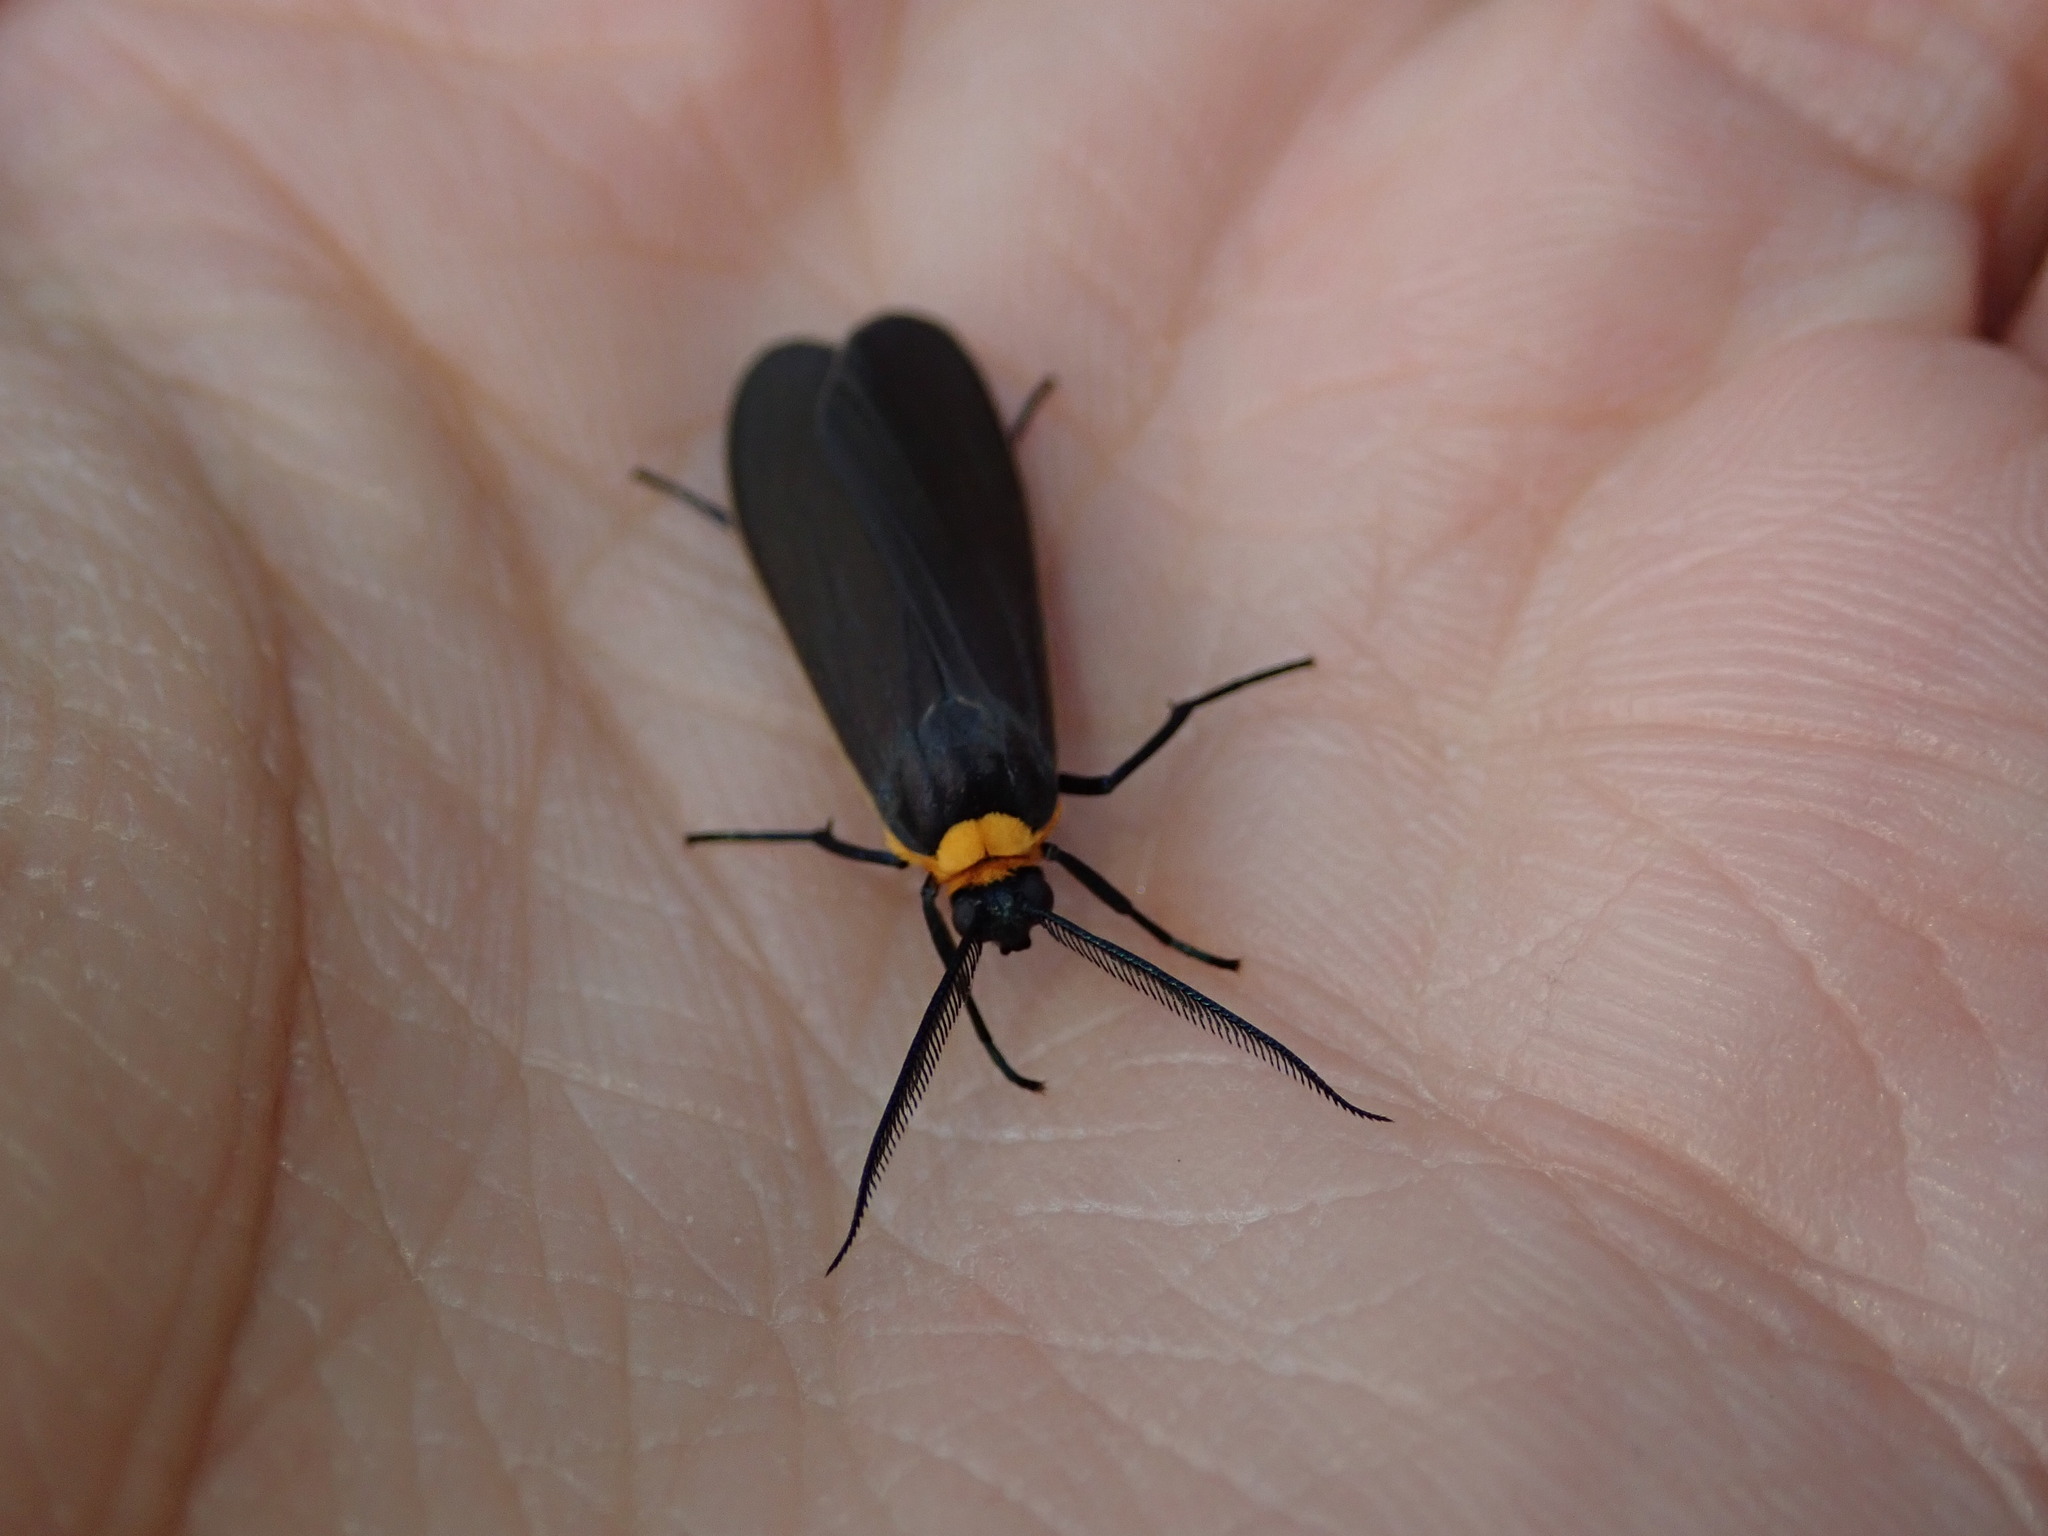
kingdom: Animalia
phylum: Arthropoda
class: Insecta
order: Lepidoptera
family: Erebidae
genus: Cisseps
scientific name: Cisseps fulvicollis
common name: Yellow-collared scape moth
